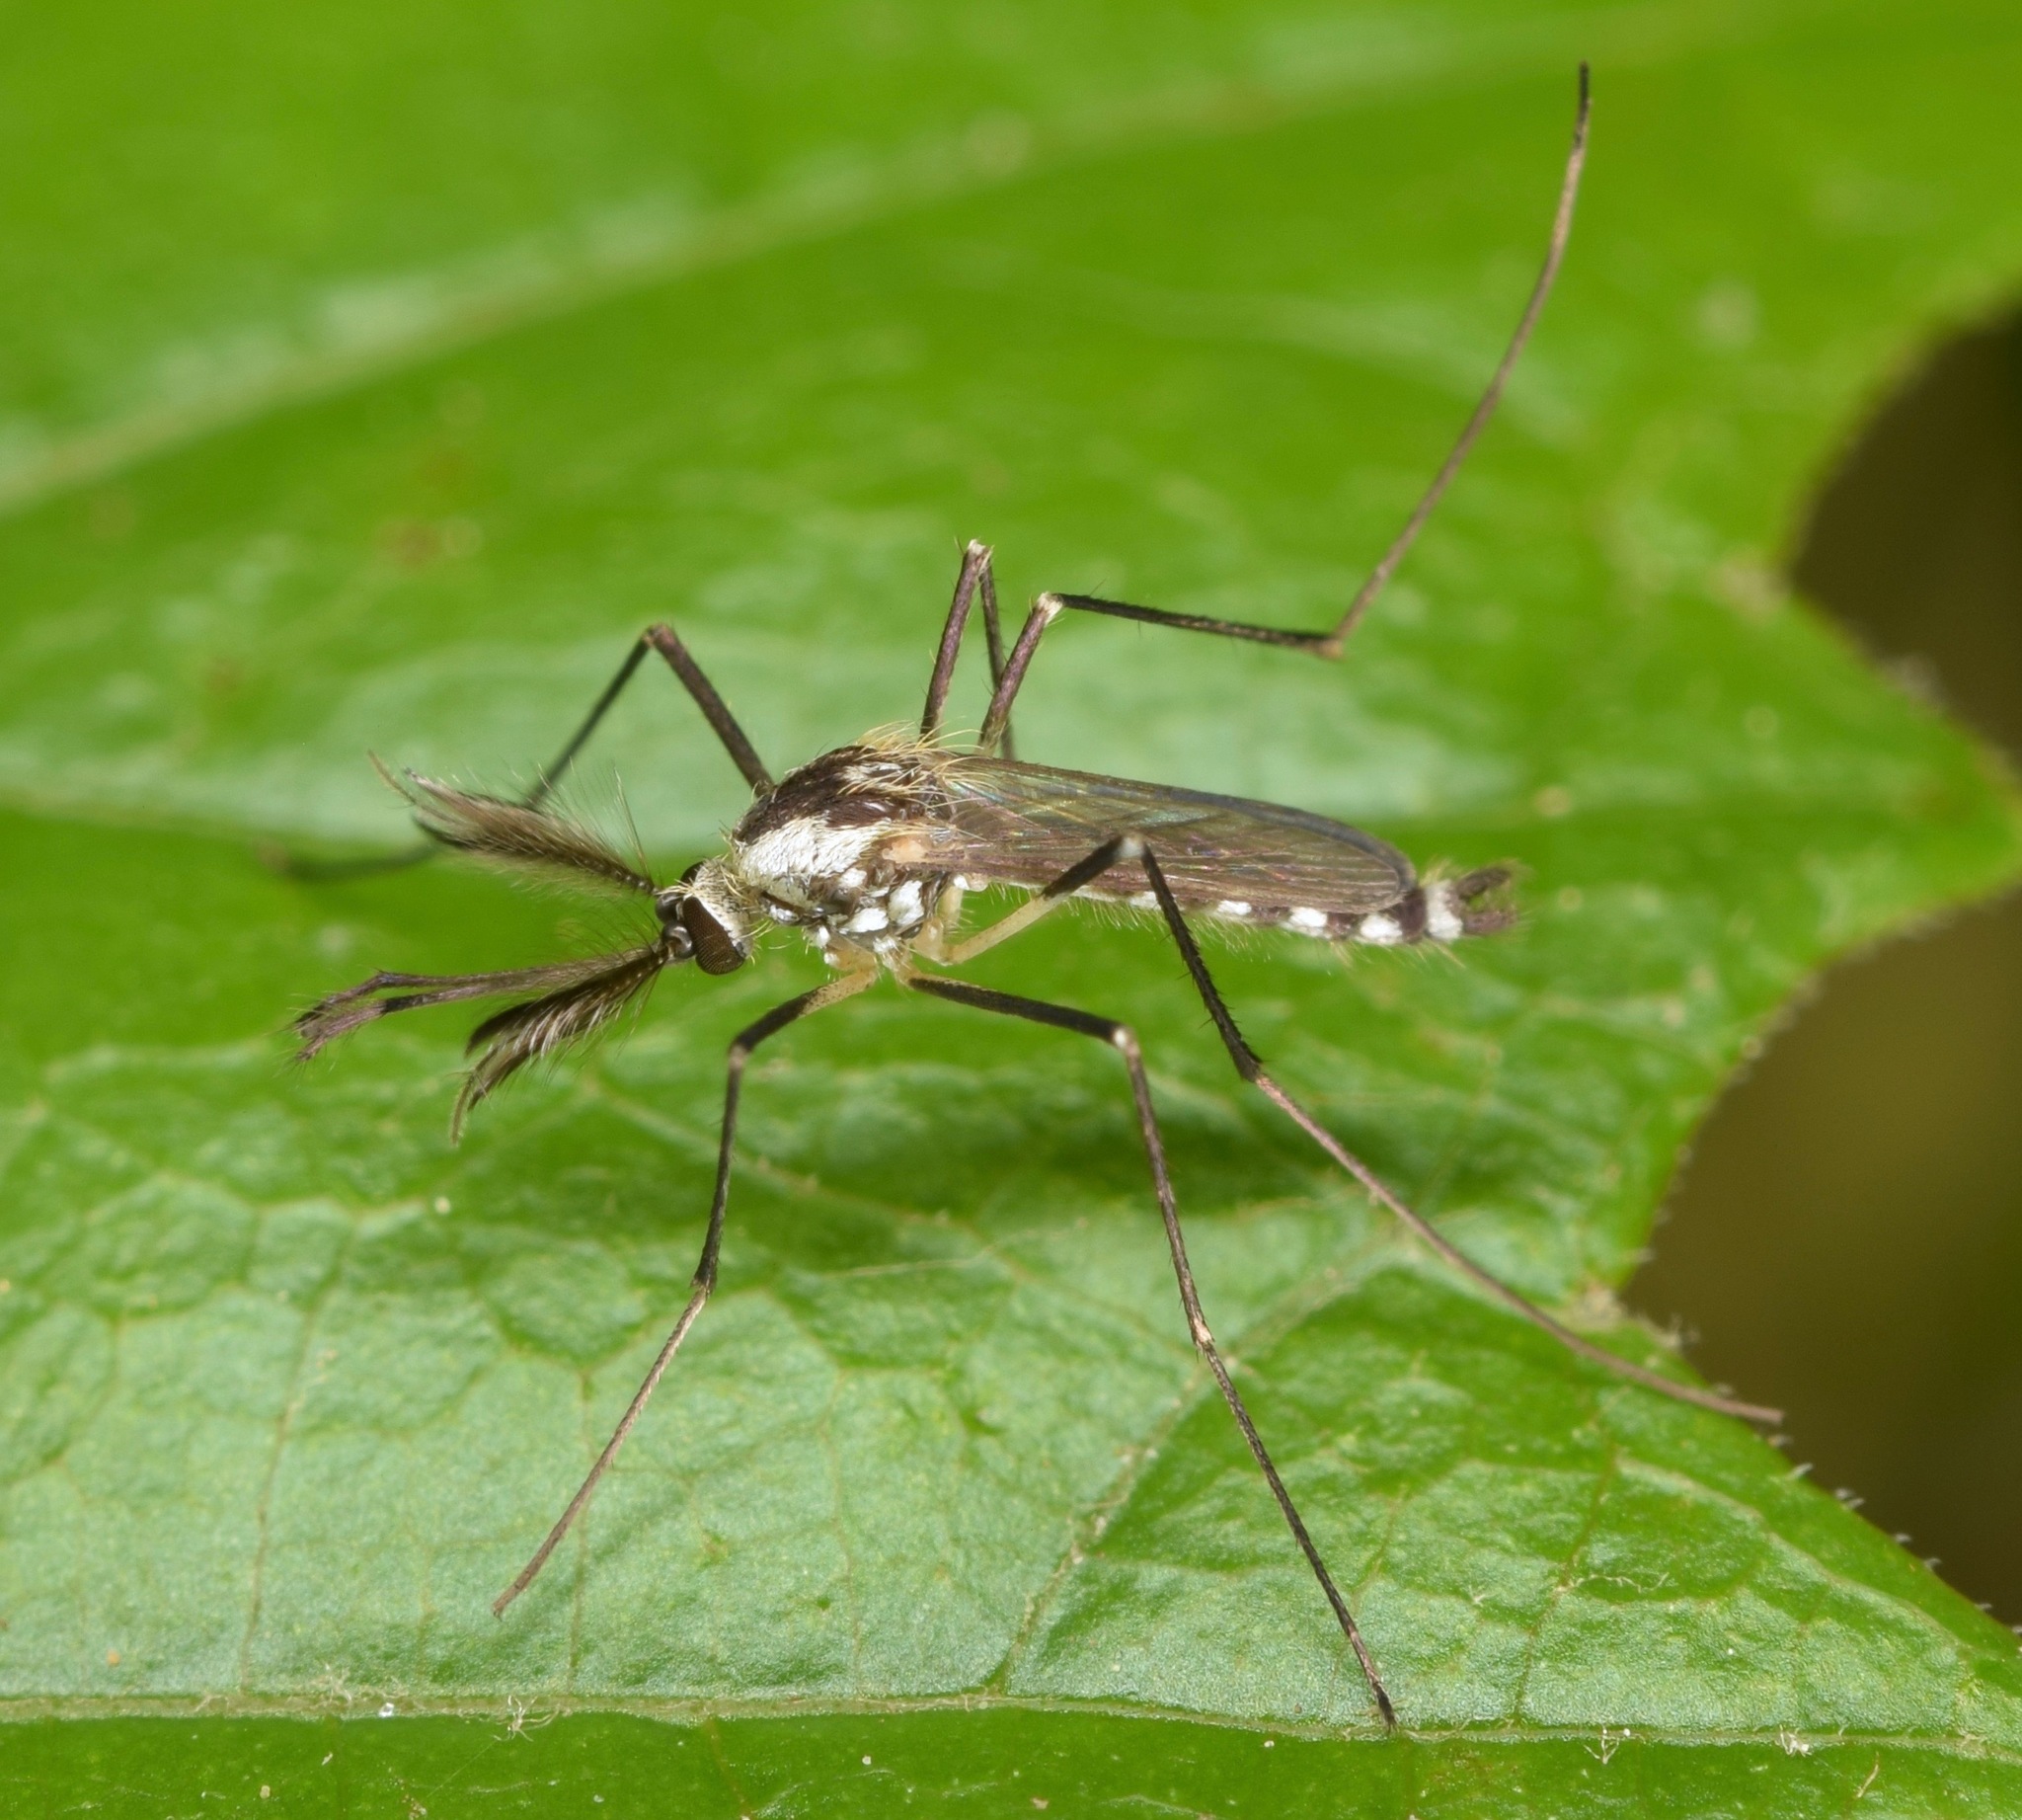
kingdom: Animalia
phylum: Arthropoda
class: Insecta
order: Diptera
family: Culicidae
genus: Aedes
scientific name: Aedes triseriatus
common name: Eastern treehole mosquito
